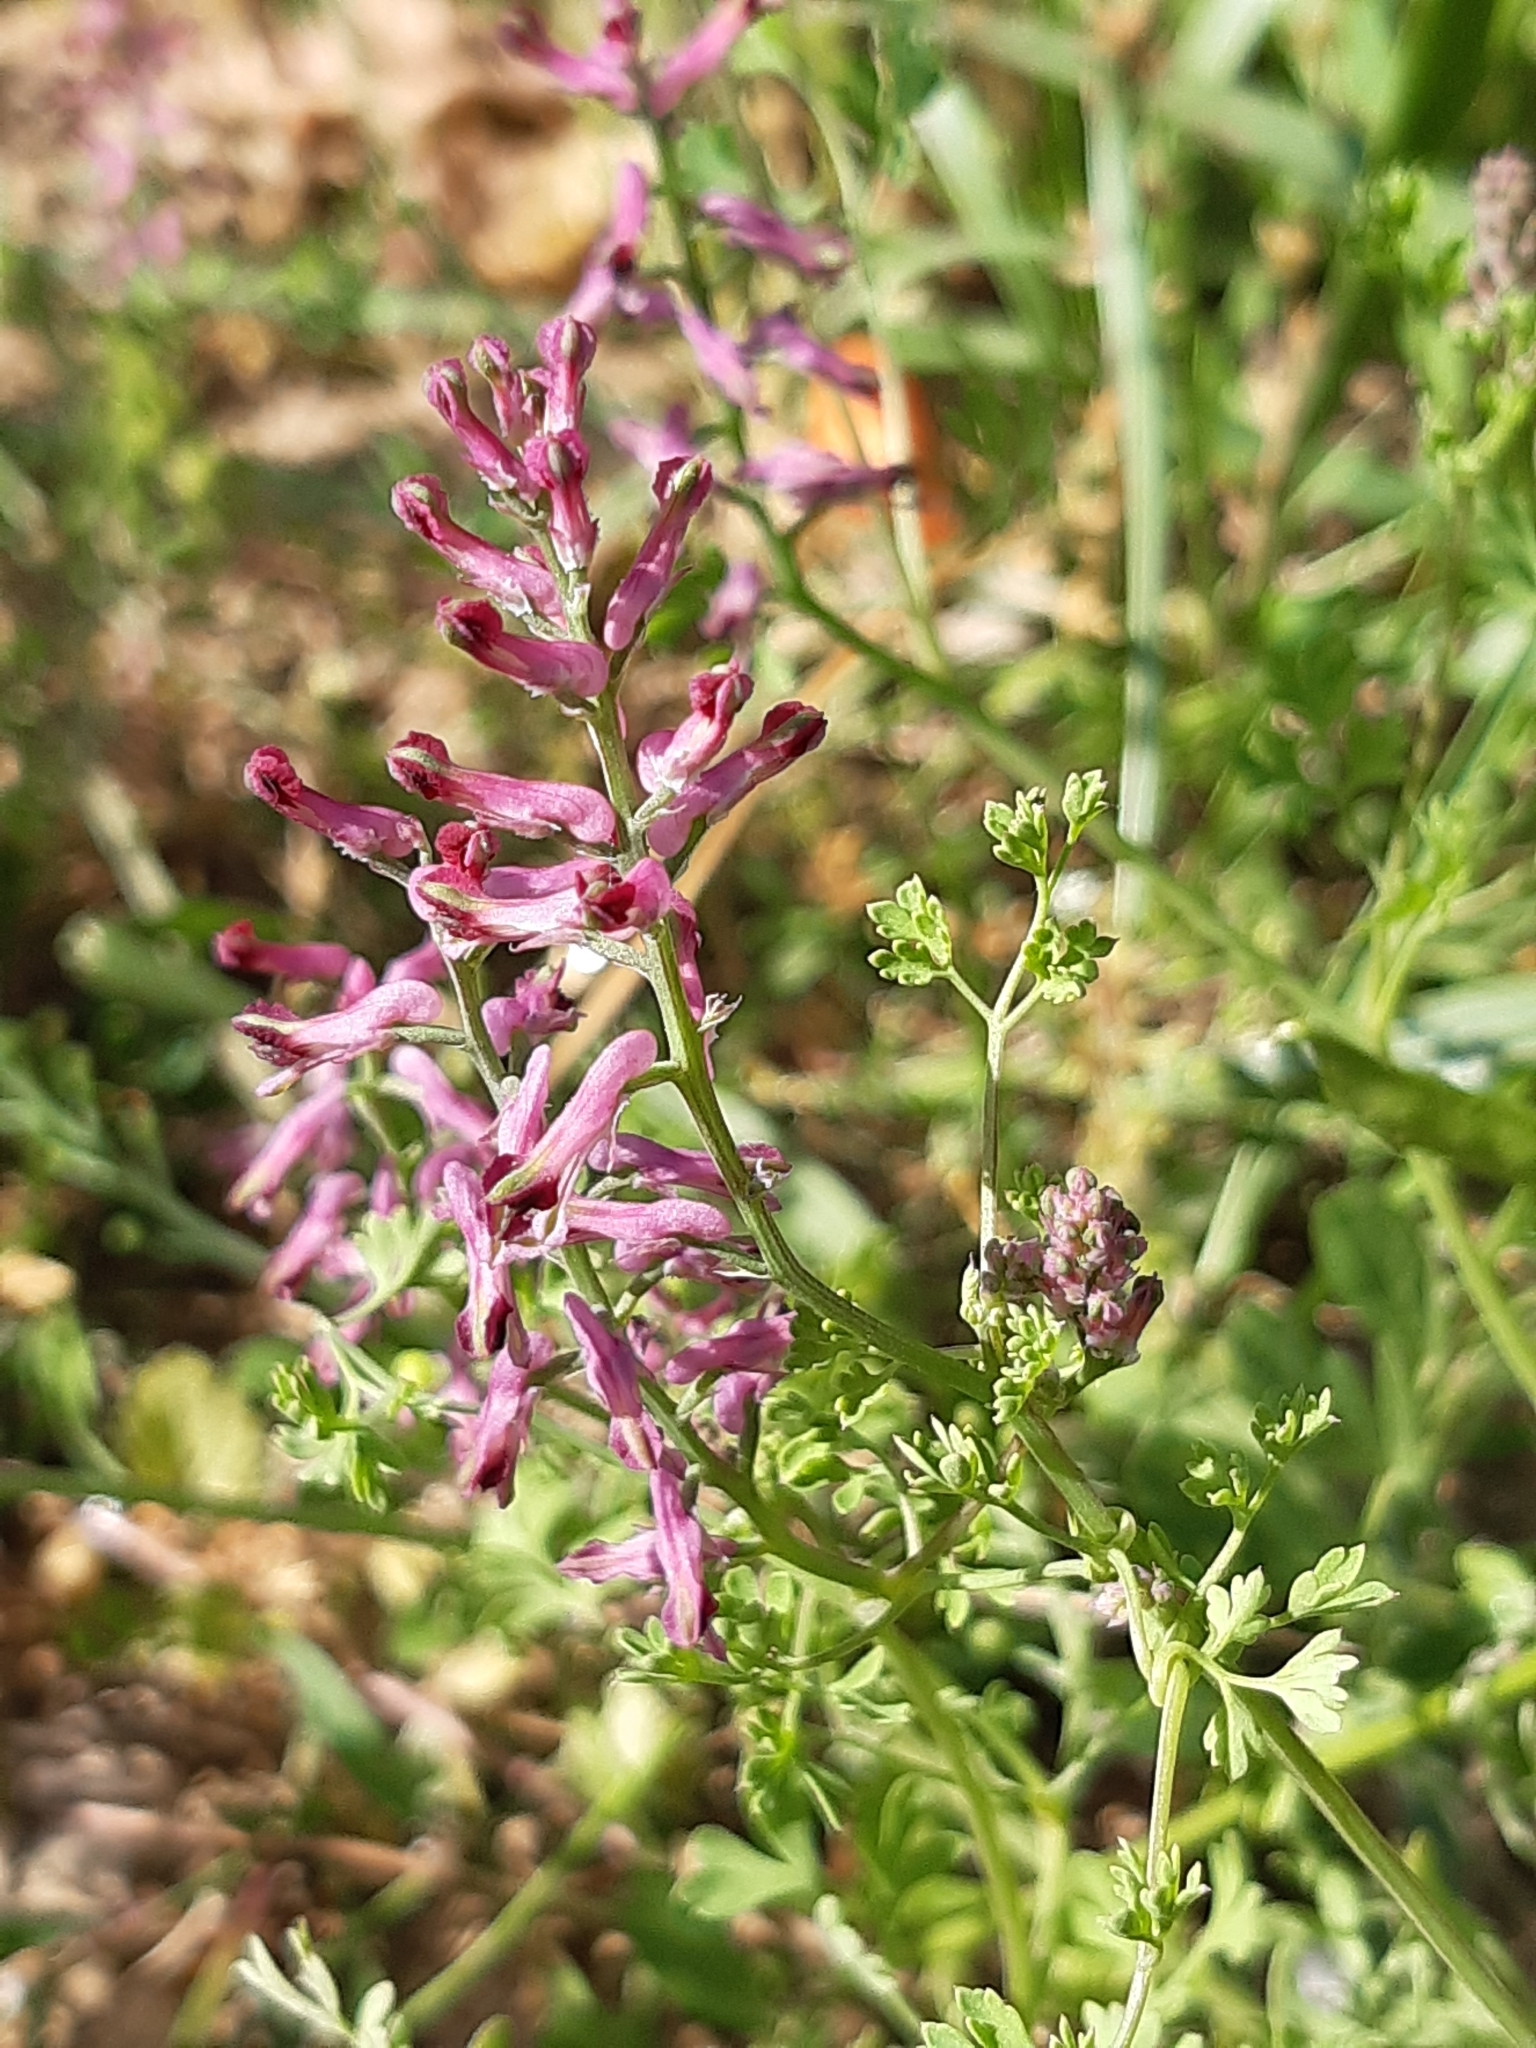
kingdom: Plantae
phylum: Tracheophyta
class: Magnoliopsida
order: Ranunculales
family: Papaveraceae
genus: Fumaria
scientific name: Fumaria officinalis
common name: Common fumitory
